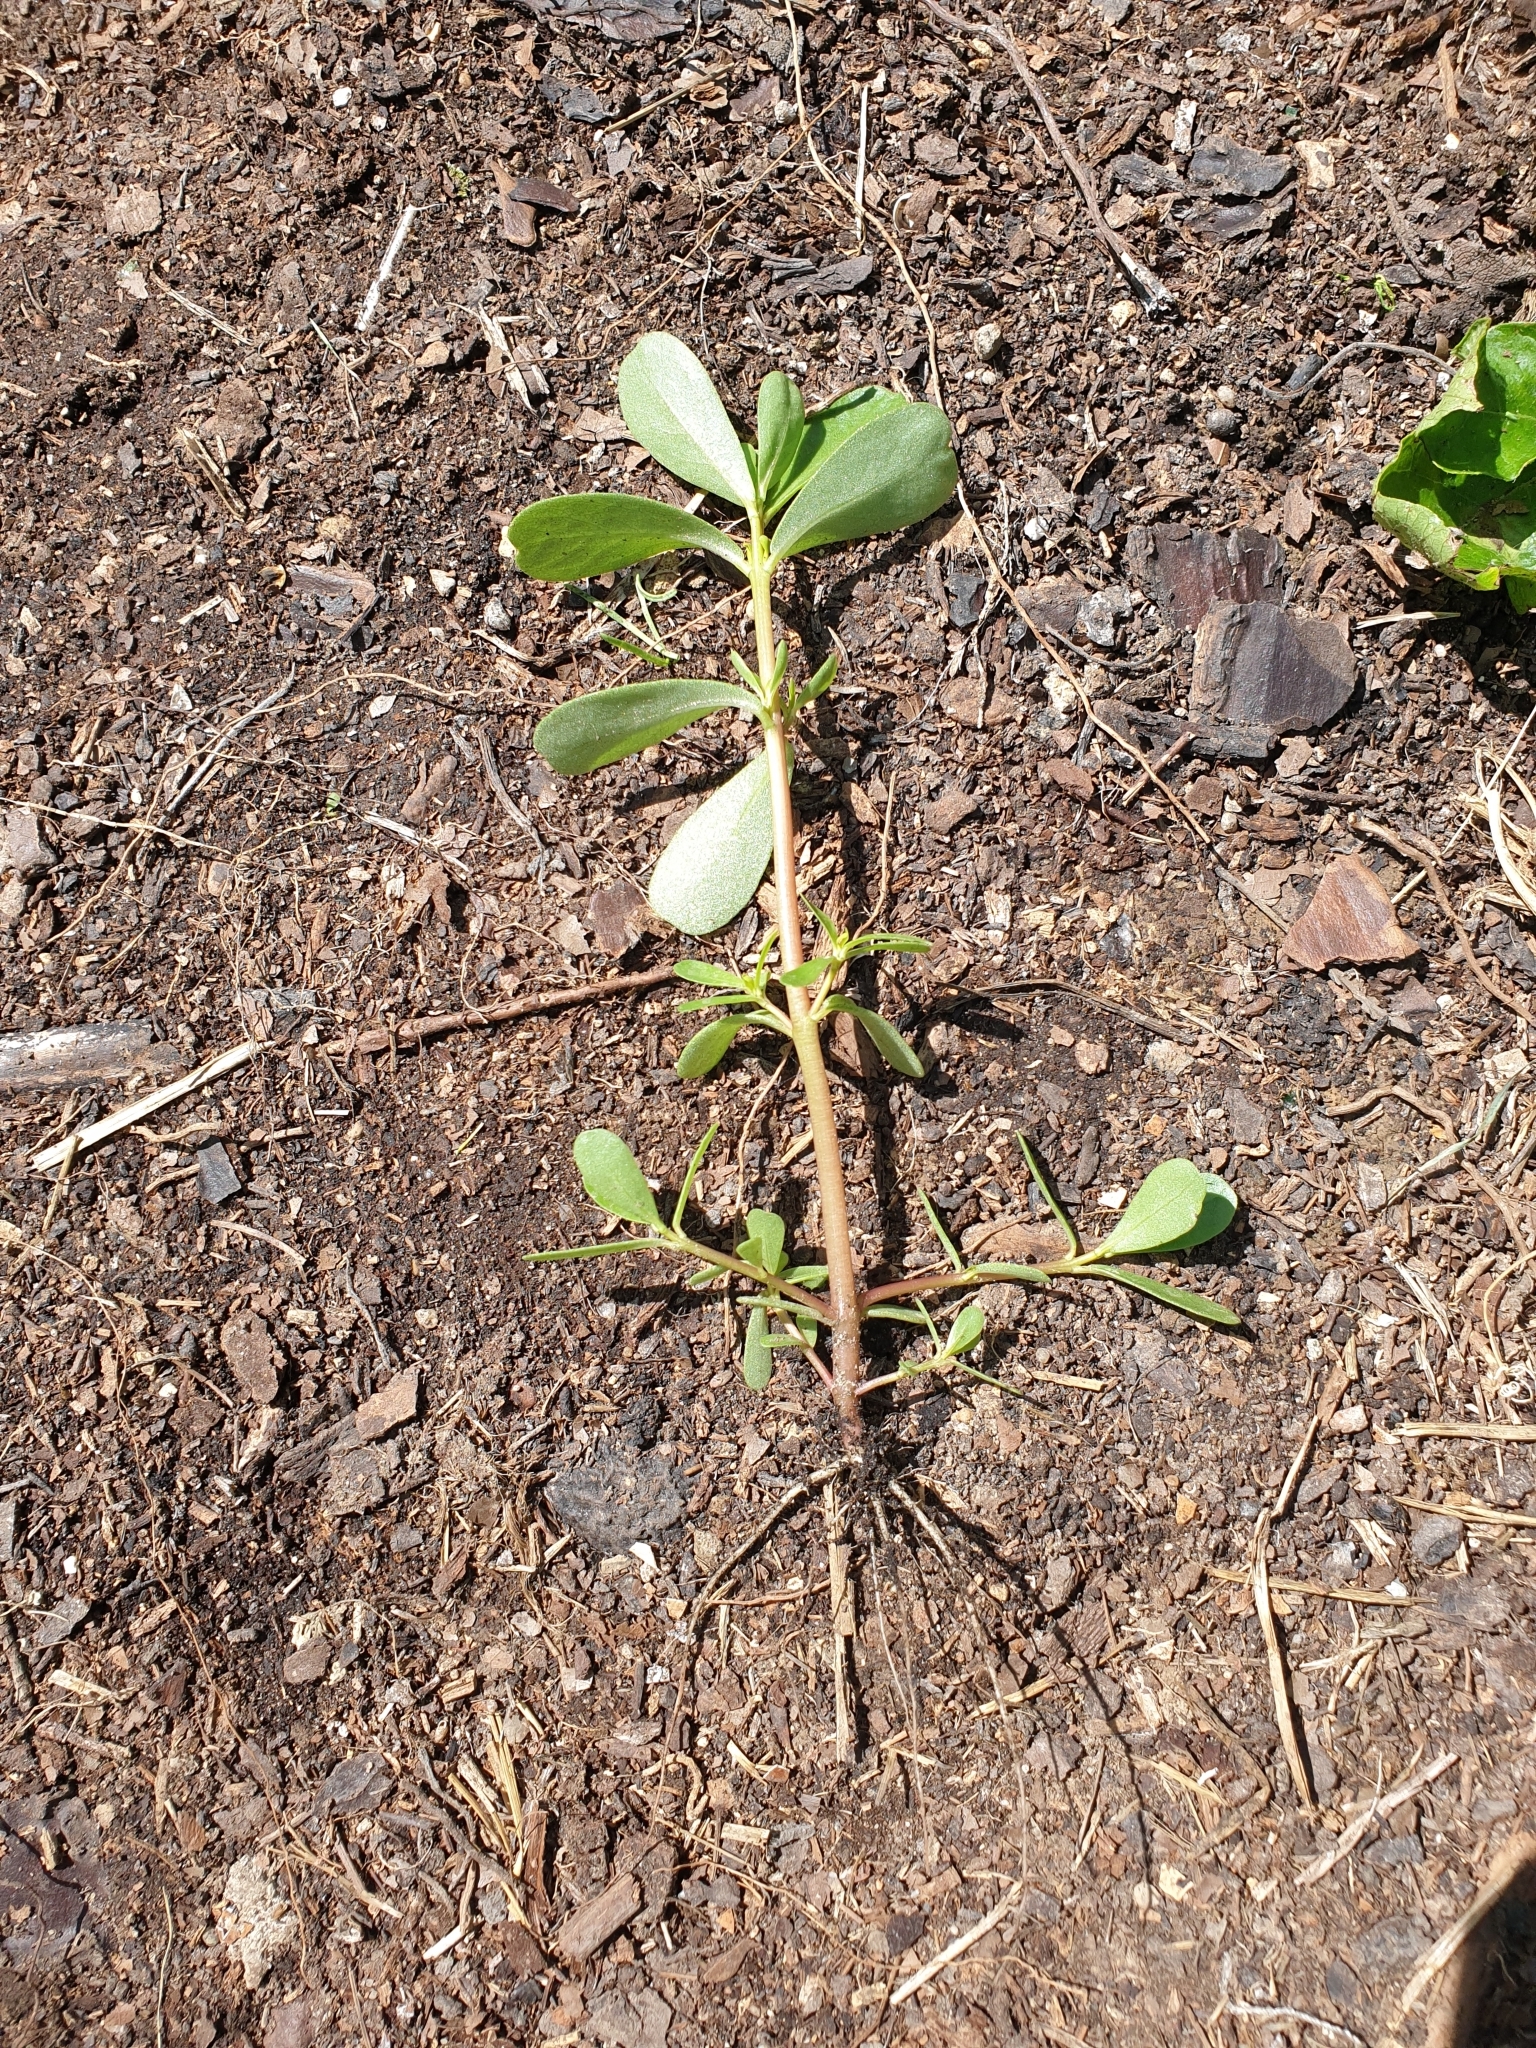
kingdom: Plantae
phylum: Tracheophyta
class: Magnoliopsida
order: Caryophyllales
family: Portulacaceae
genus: Portulaca
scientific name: Portulaca oleracea
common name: Common purslane
